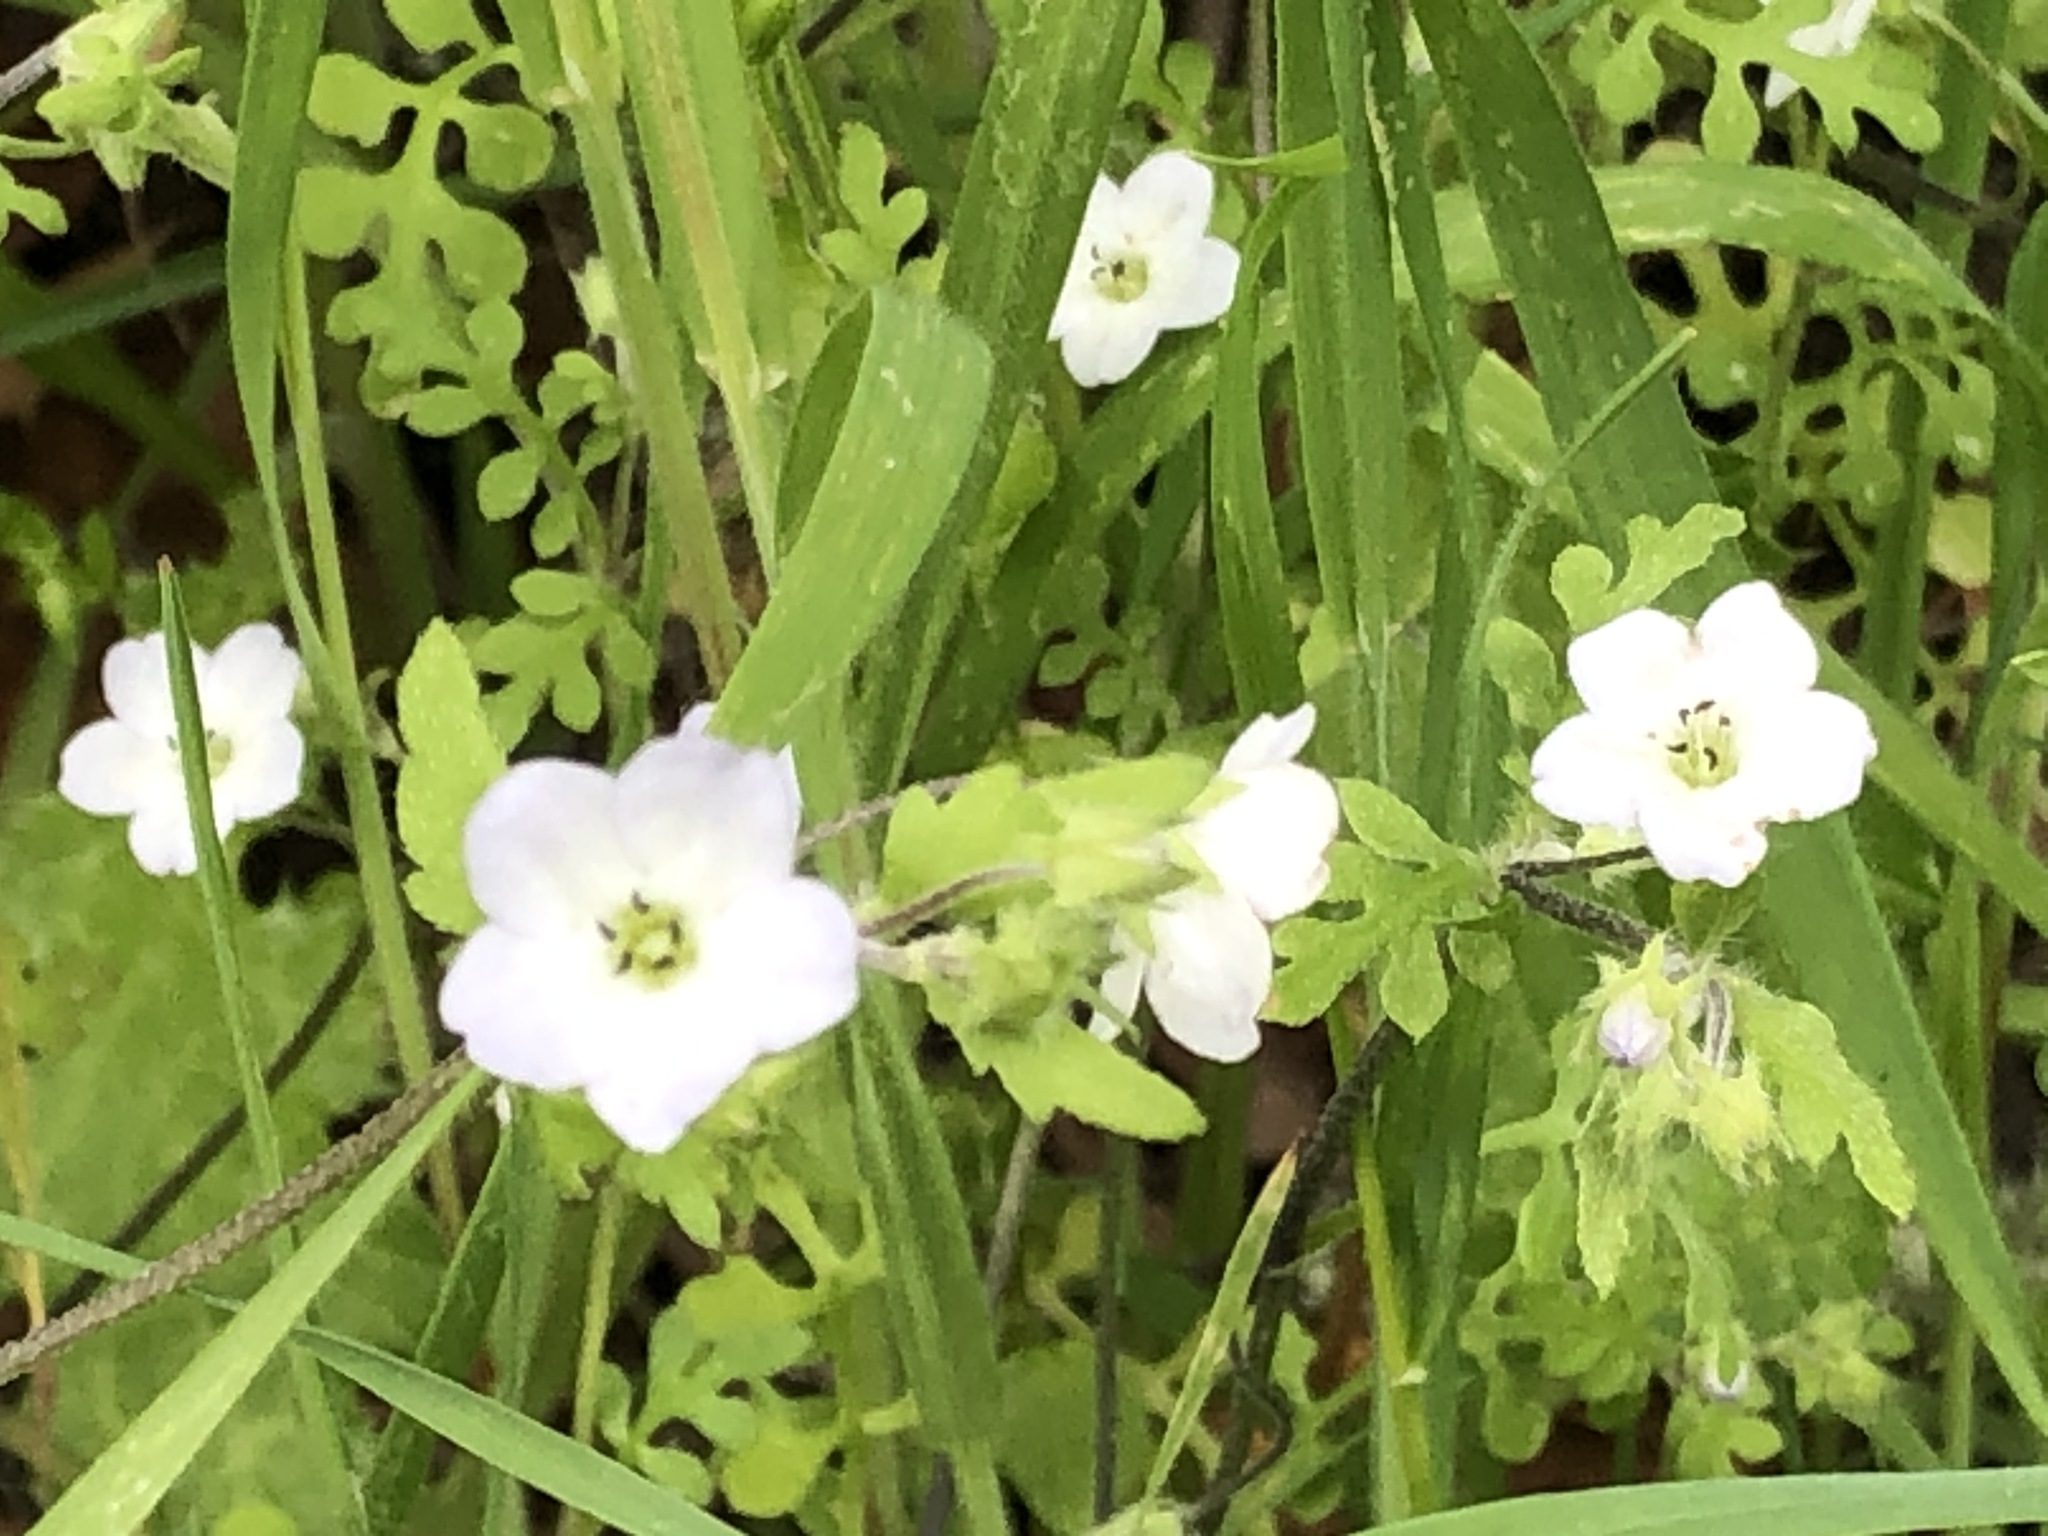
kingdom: Plantae
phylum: Tracheophyta
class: Magnoliopsida
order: Boraginales
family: Hydrophyllaceae
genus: Nemophila
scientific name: Nemophila heterophylla
